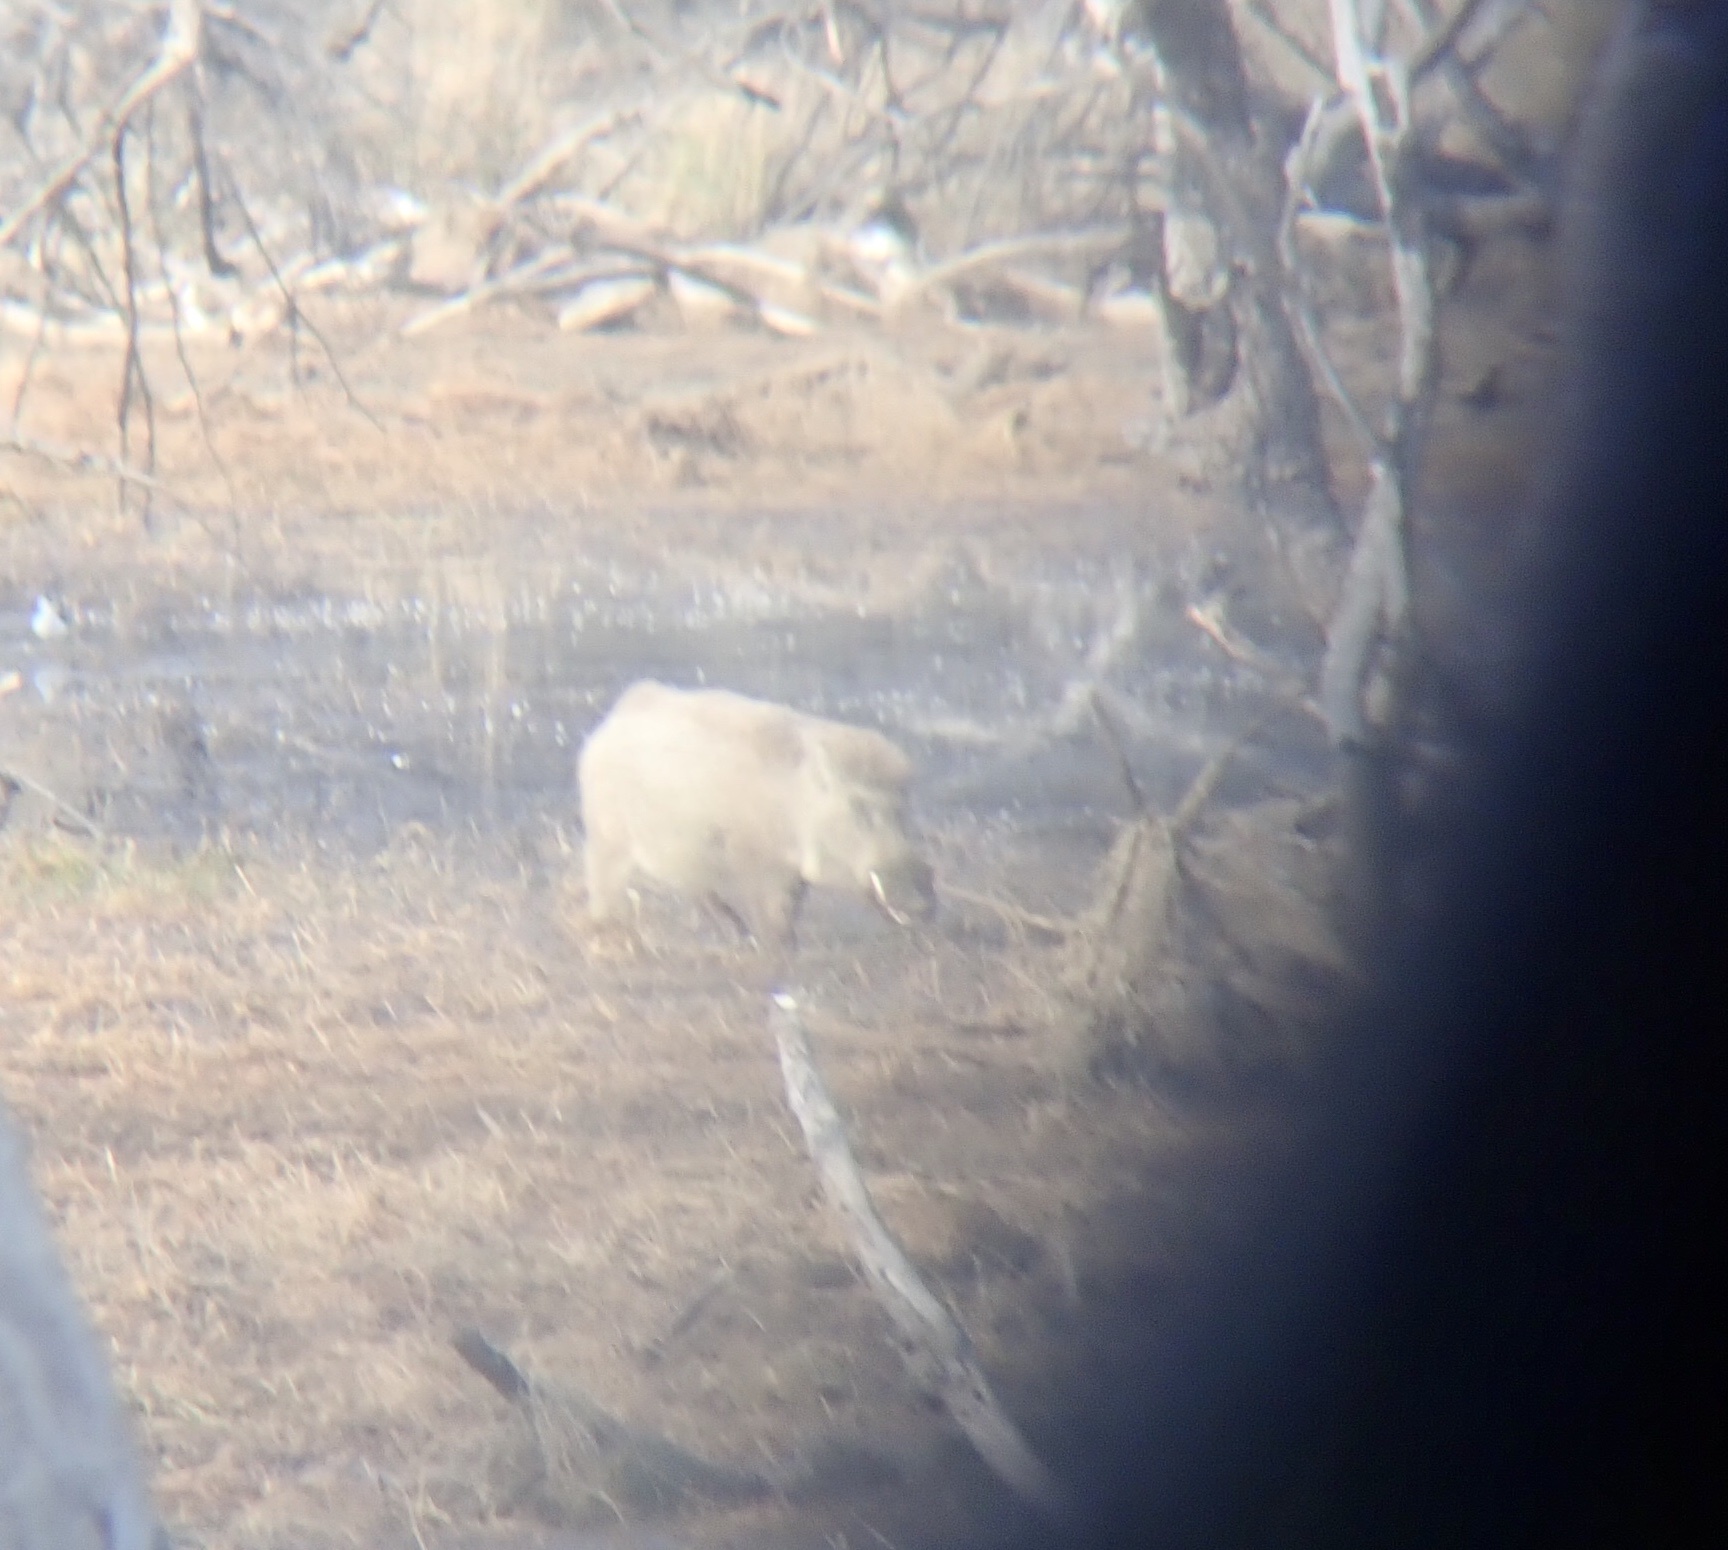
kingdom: Animalia
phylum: Chordata
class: Mammalia
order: Artiodactyla
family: Suidae
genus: Sus
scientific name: Sus scrofa
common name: Wild boar
